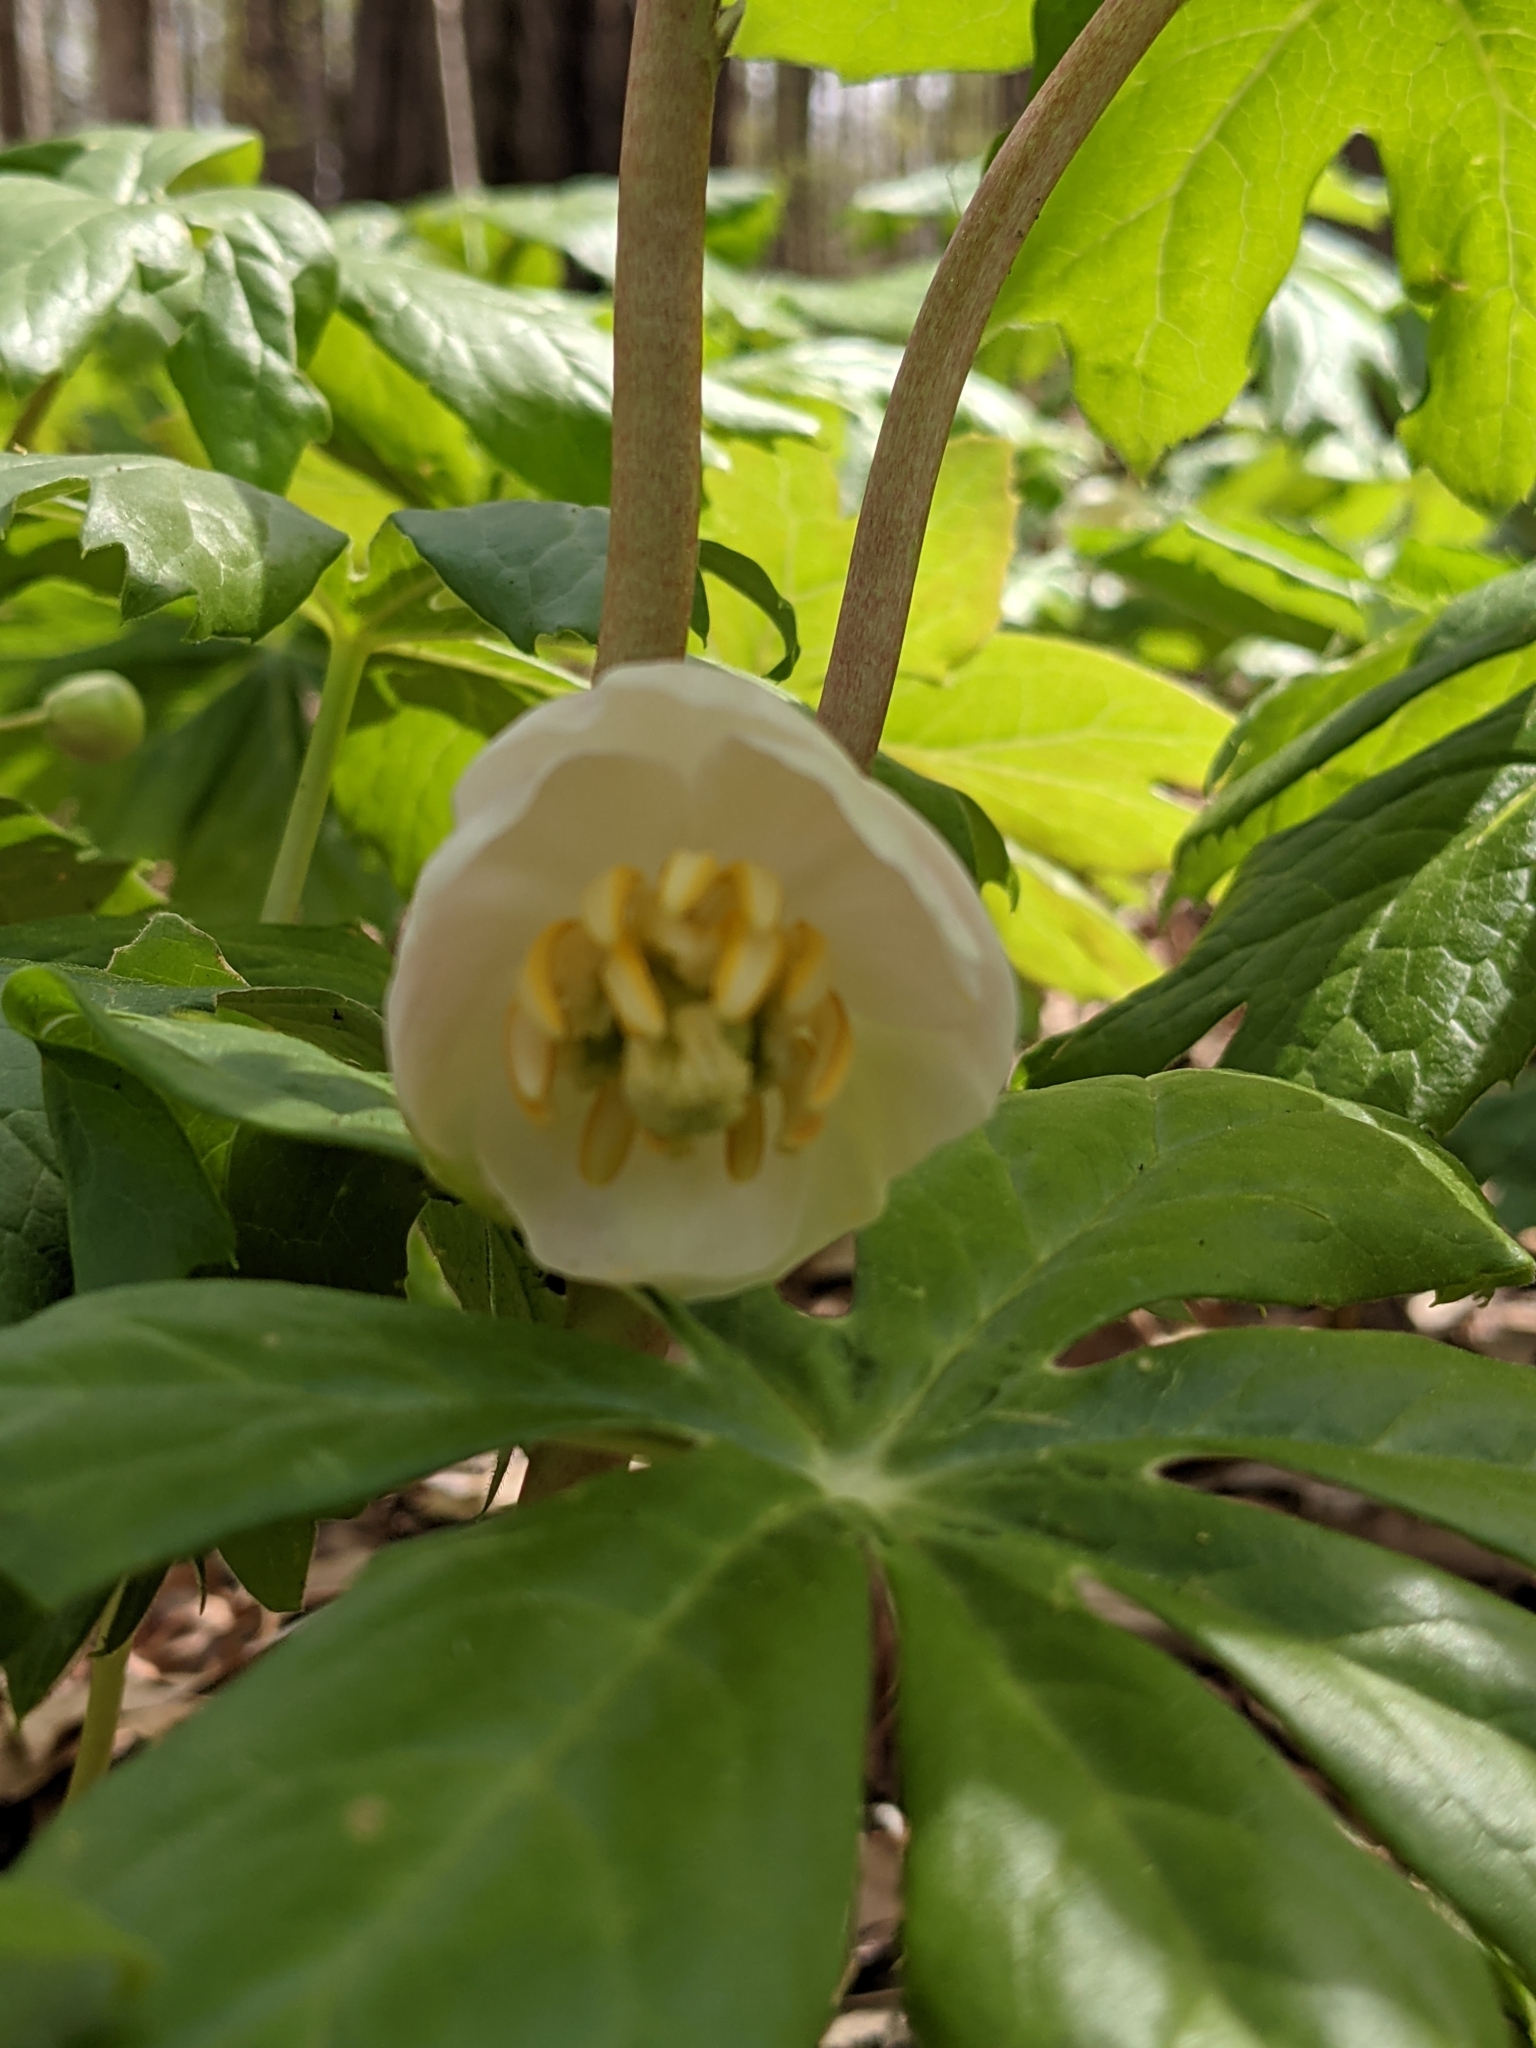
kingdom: Plantae
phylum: Tracheophyta
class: Magnoliopsida
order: Ranunculales
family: Berberidaceae
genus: Podophyllum
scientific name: Podophyllum peltatum
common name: Wild mandrake
